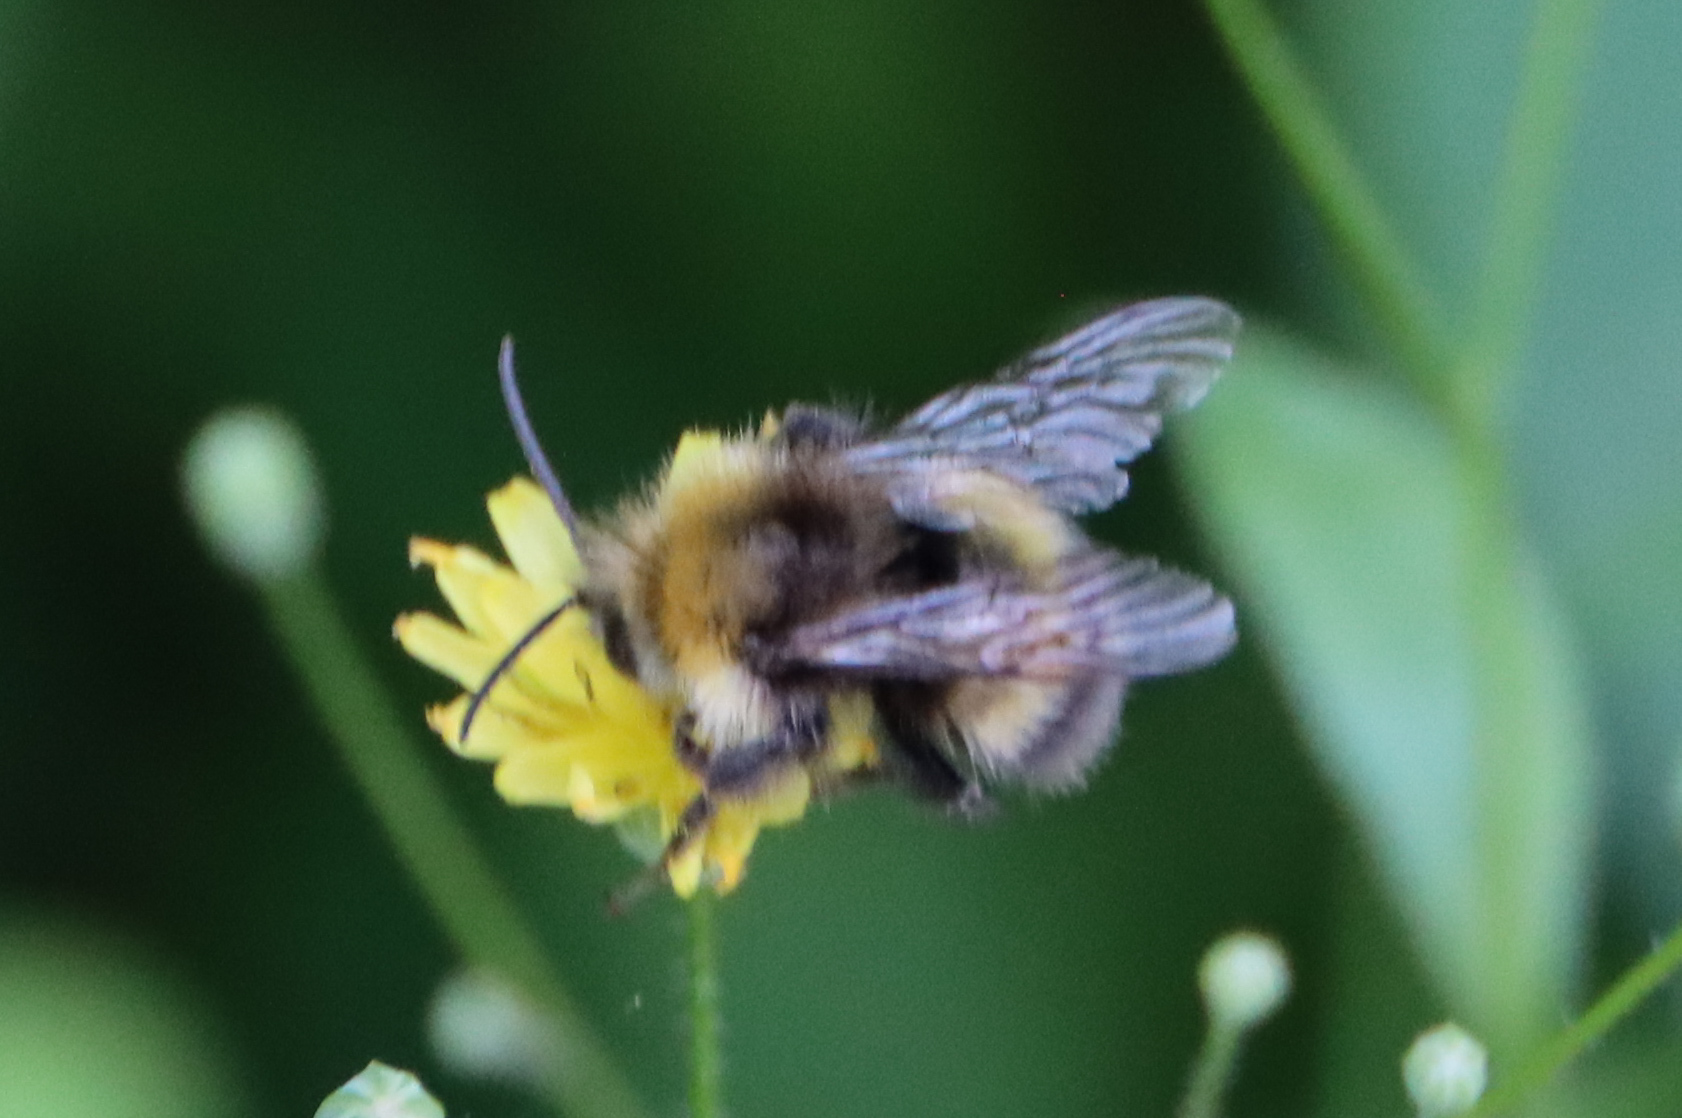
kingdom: Animalia
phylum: Arthropoda
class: Insecta
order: Hymenoptera
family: Apidae
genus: Bombus
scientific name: Bombus lucorum
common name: White-tailed bumblebee
